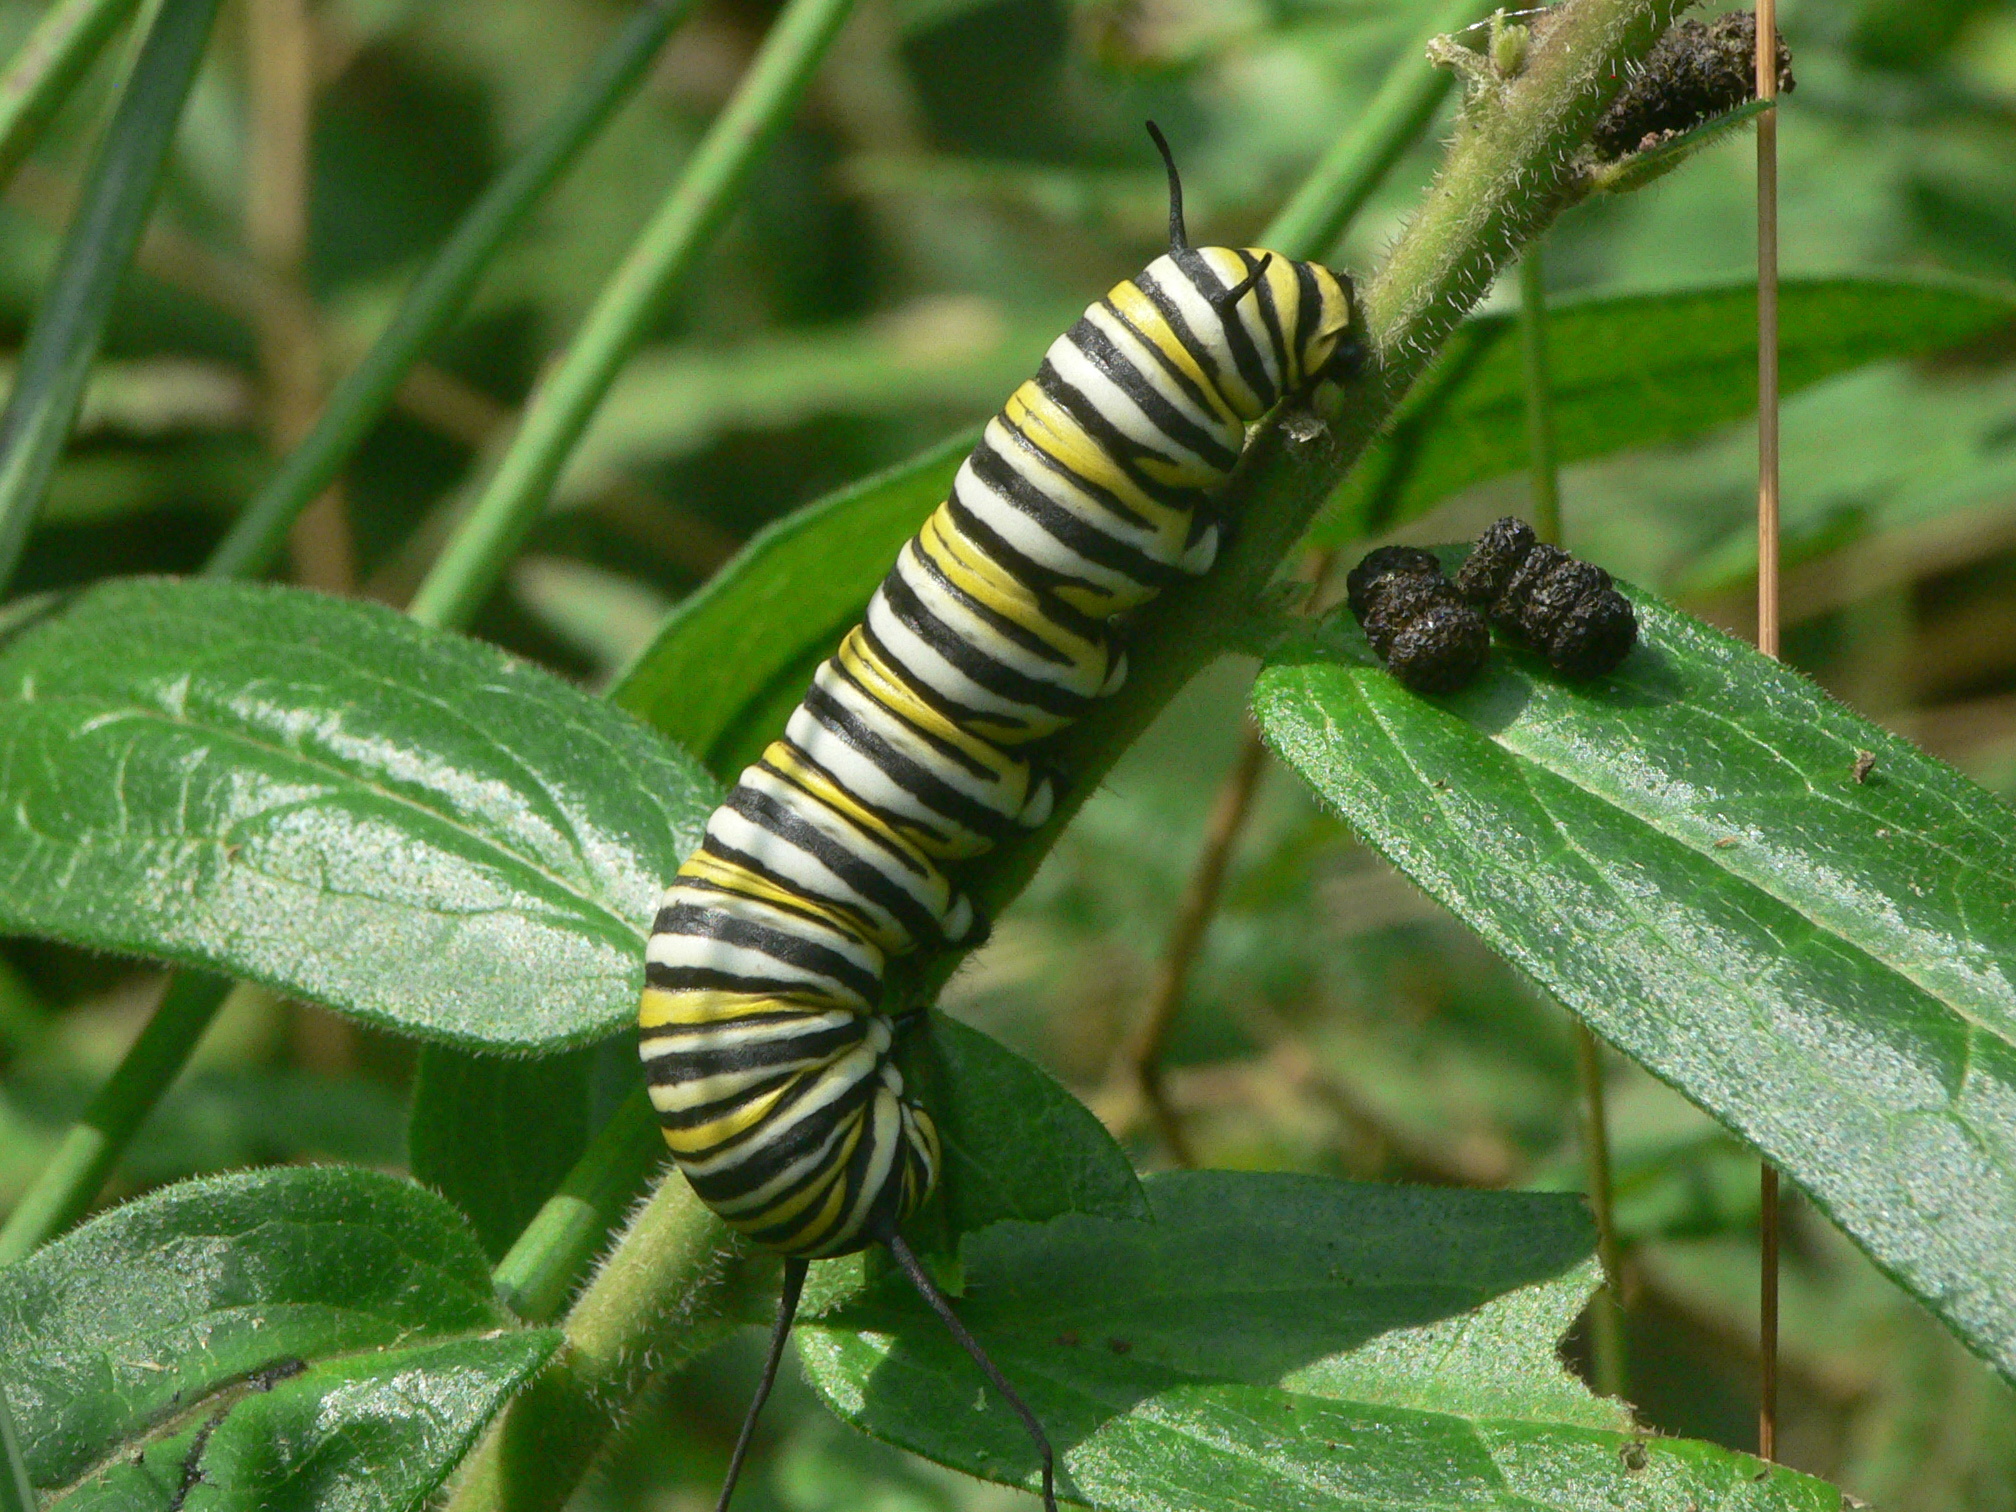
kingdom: Animalia
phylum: Arthropoda
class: Insecta
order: Lepidoptera
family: Nymphalidae
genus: Danaus
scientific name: Danaus plexippus
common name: Monarch
